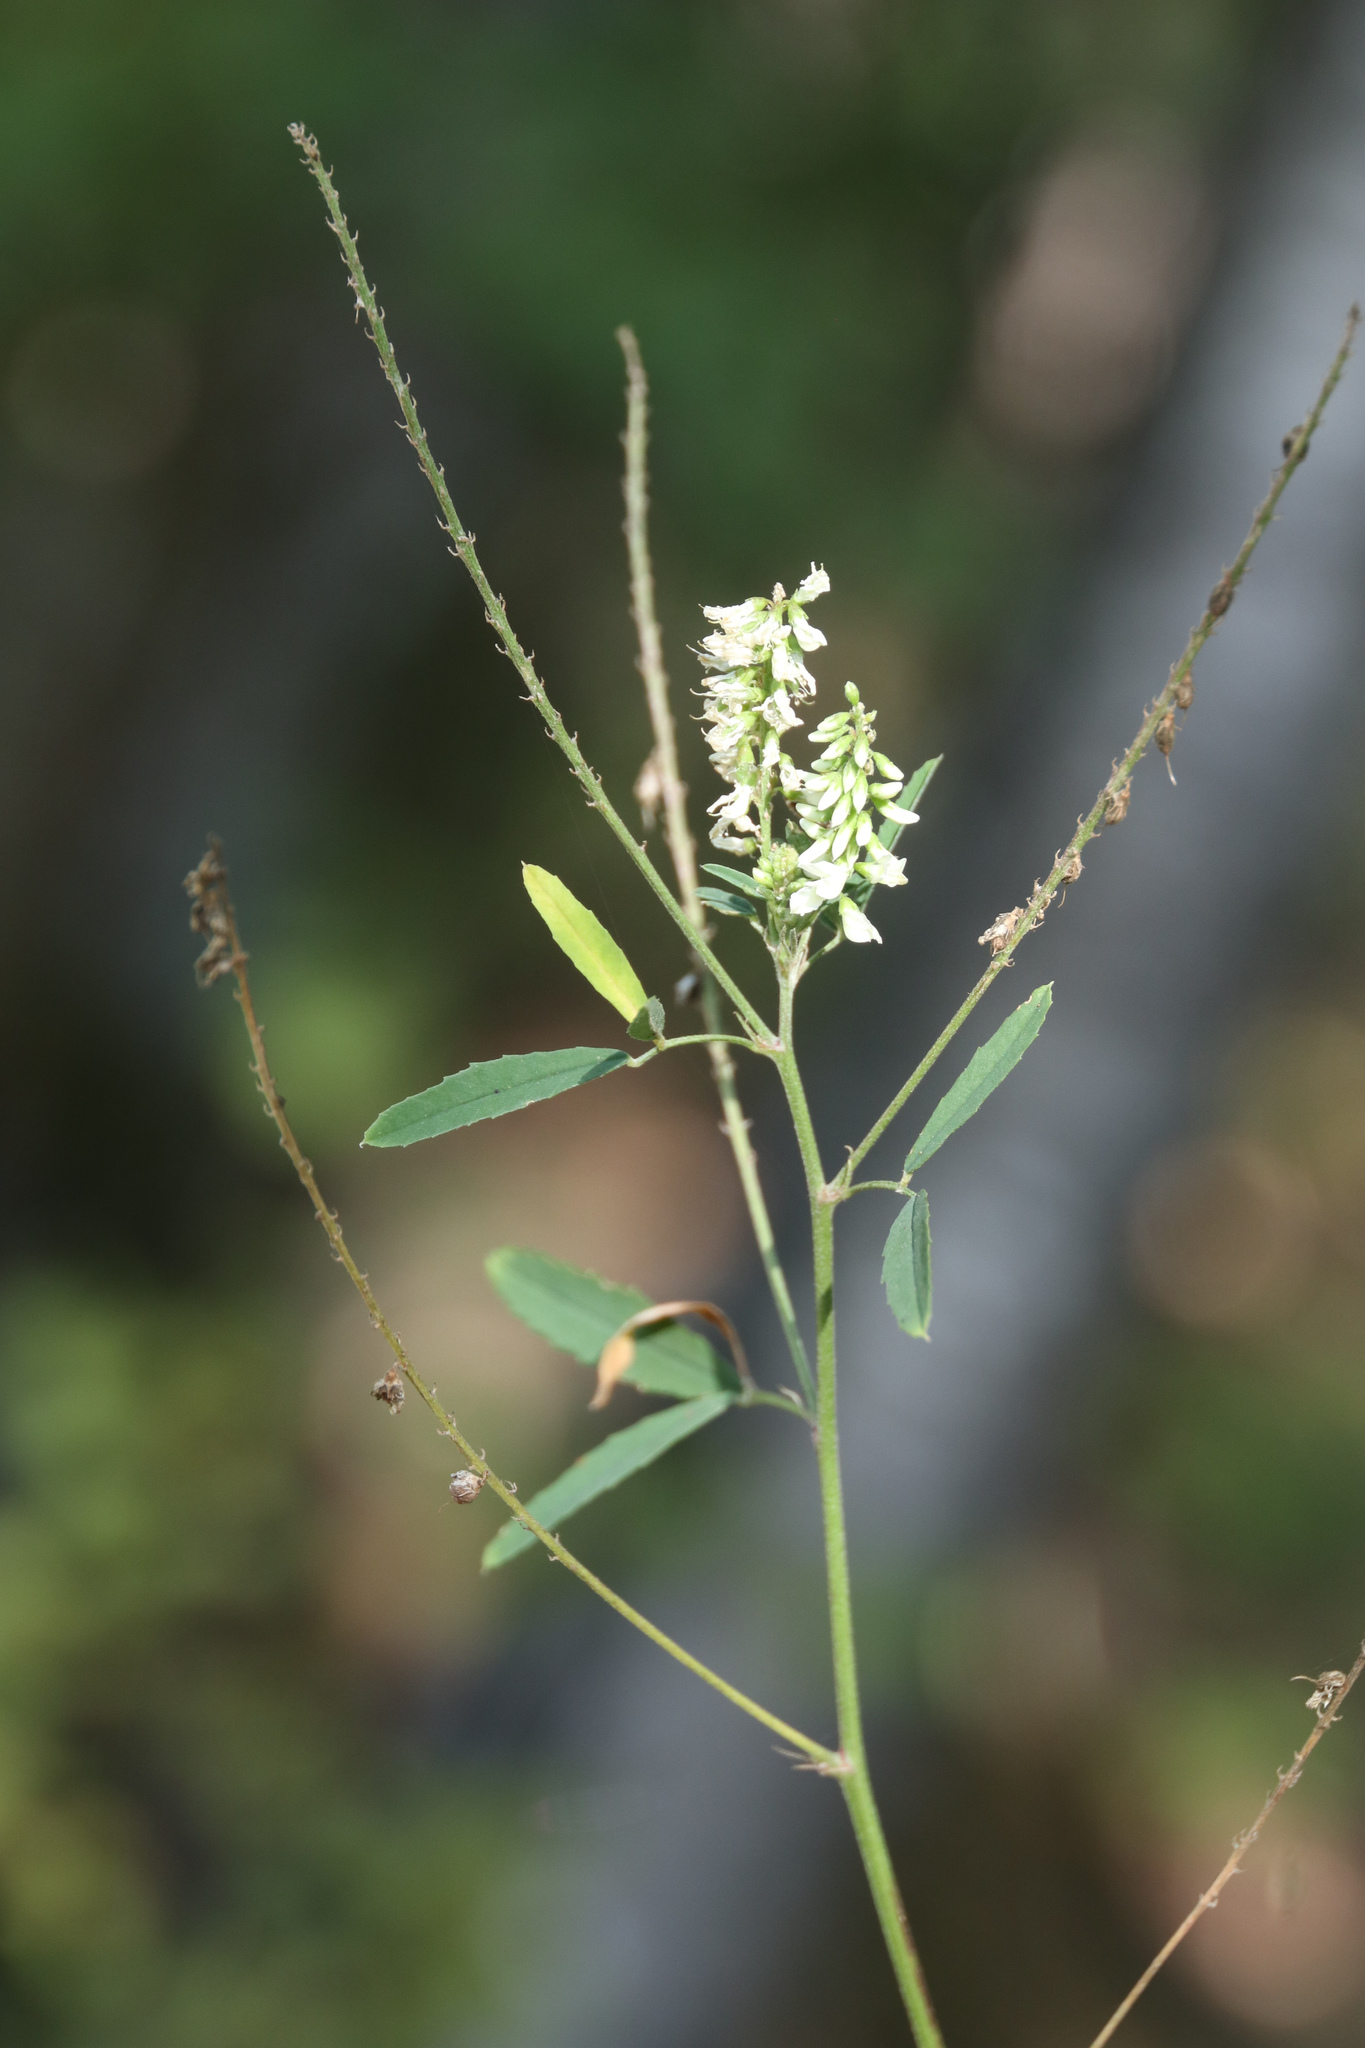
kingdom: Plantae
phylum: Tracheophyta
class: Magnoliopsida
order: Fabales
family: Fabaceae
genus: Melilotus
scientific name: Melilotus albus
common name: White melilot
